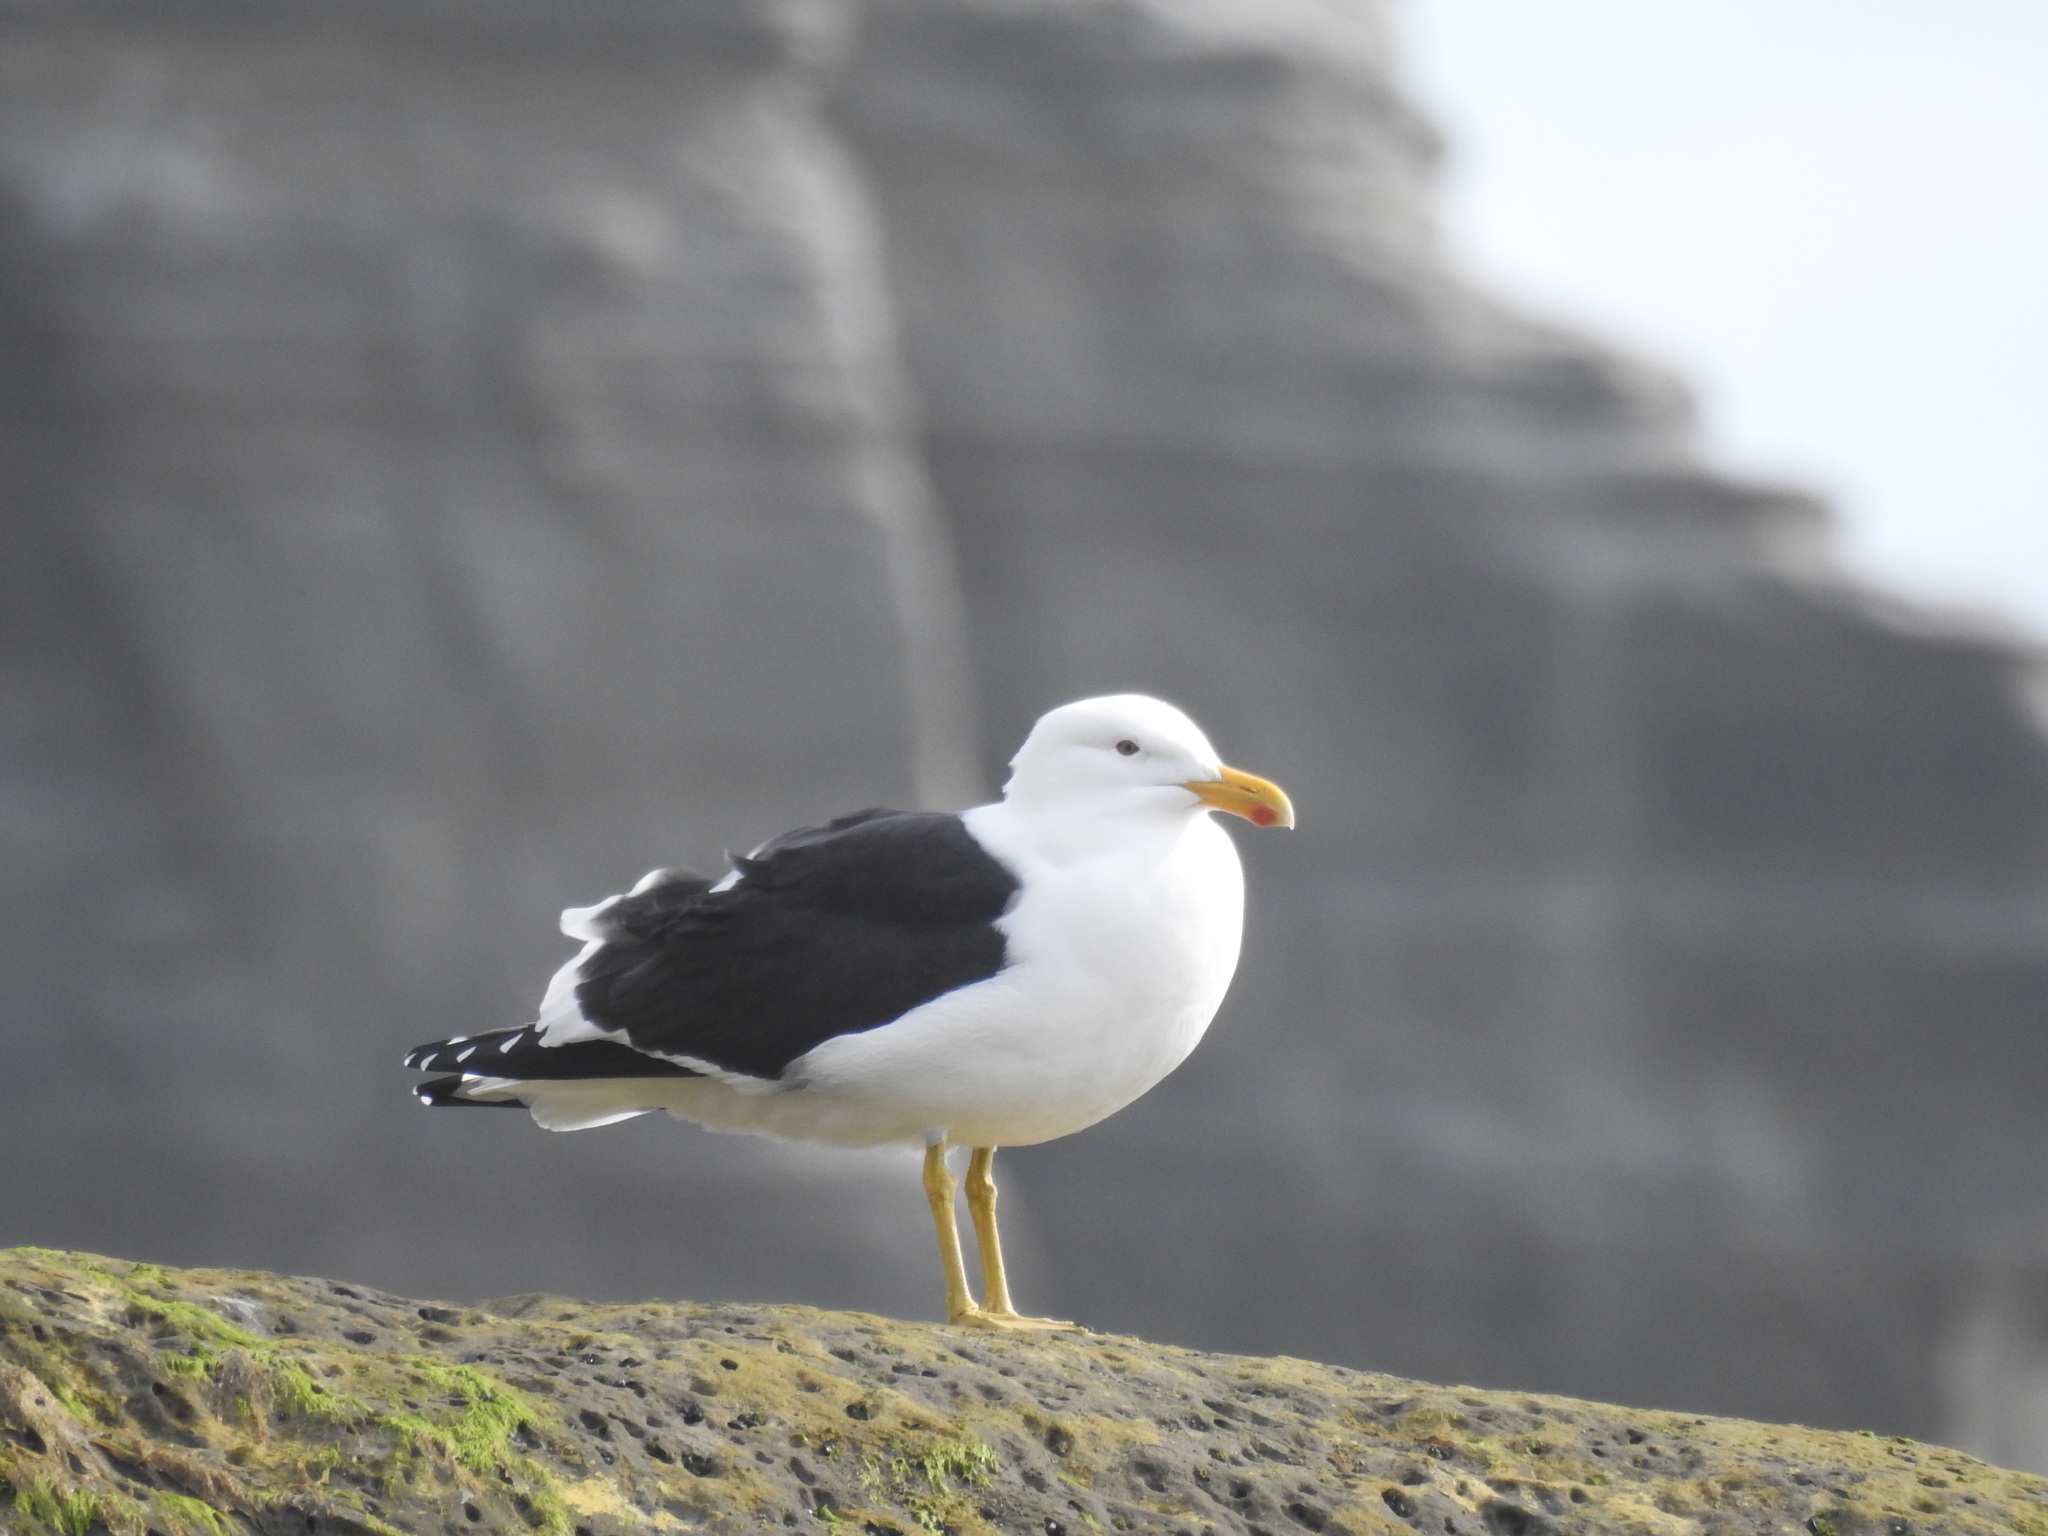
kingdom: Animalia
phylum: Chordata
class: Aves
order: Charadriiformes
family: Laridae
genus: Larus
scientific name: Larus dominicanus
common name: Kelp gull
